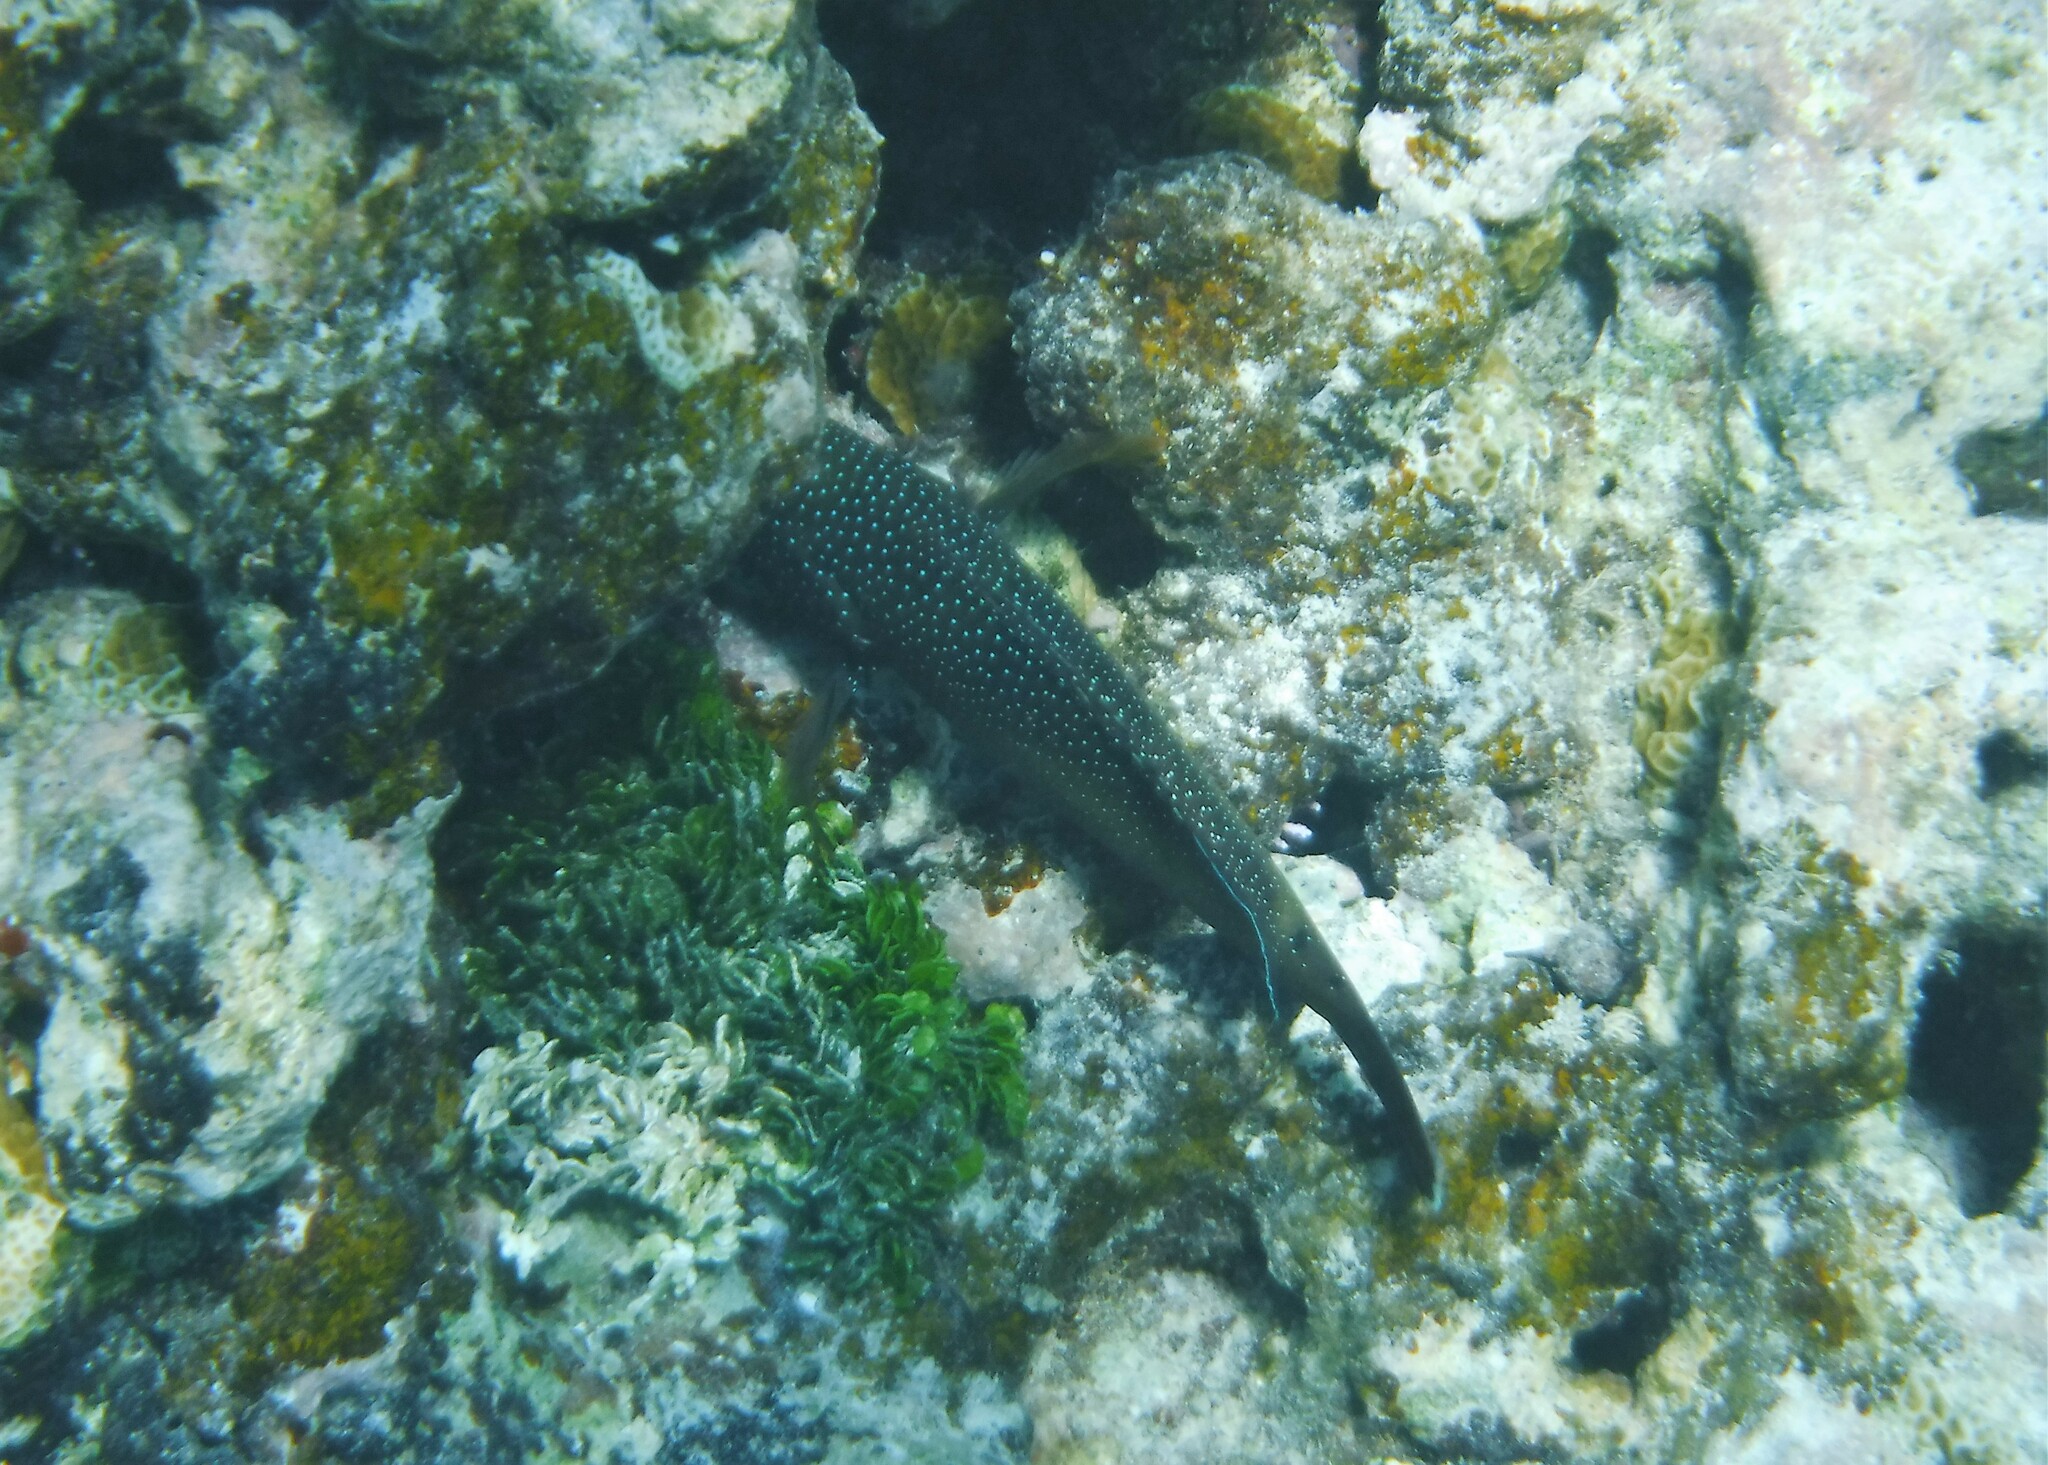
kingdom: Animalia
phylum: Chordata
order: Perciformes
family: Serranidae
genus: Cephalopholis
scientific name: Cephalopholis fulva
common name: Butterfish
